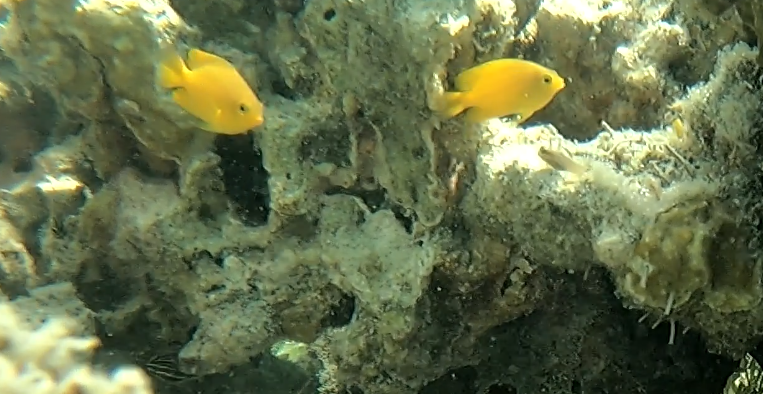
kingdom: Animalia
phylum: Chordata
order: Perciformes
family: Pomacentridae
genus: Pomacentrus
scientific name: Pomacentrus moluccensis
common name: Lemon damsel
